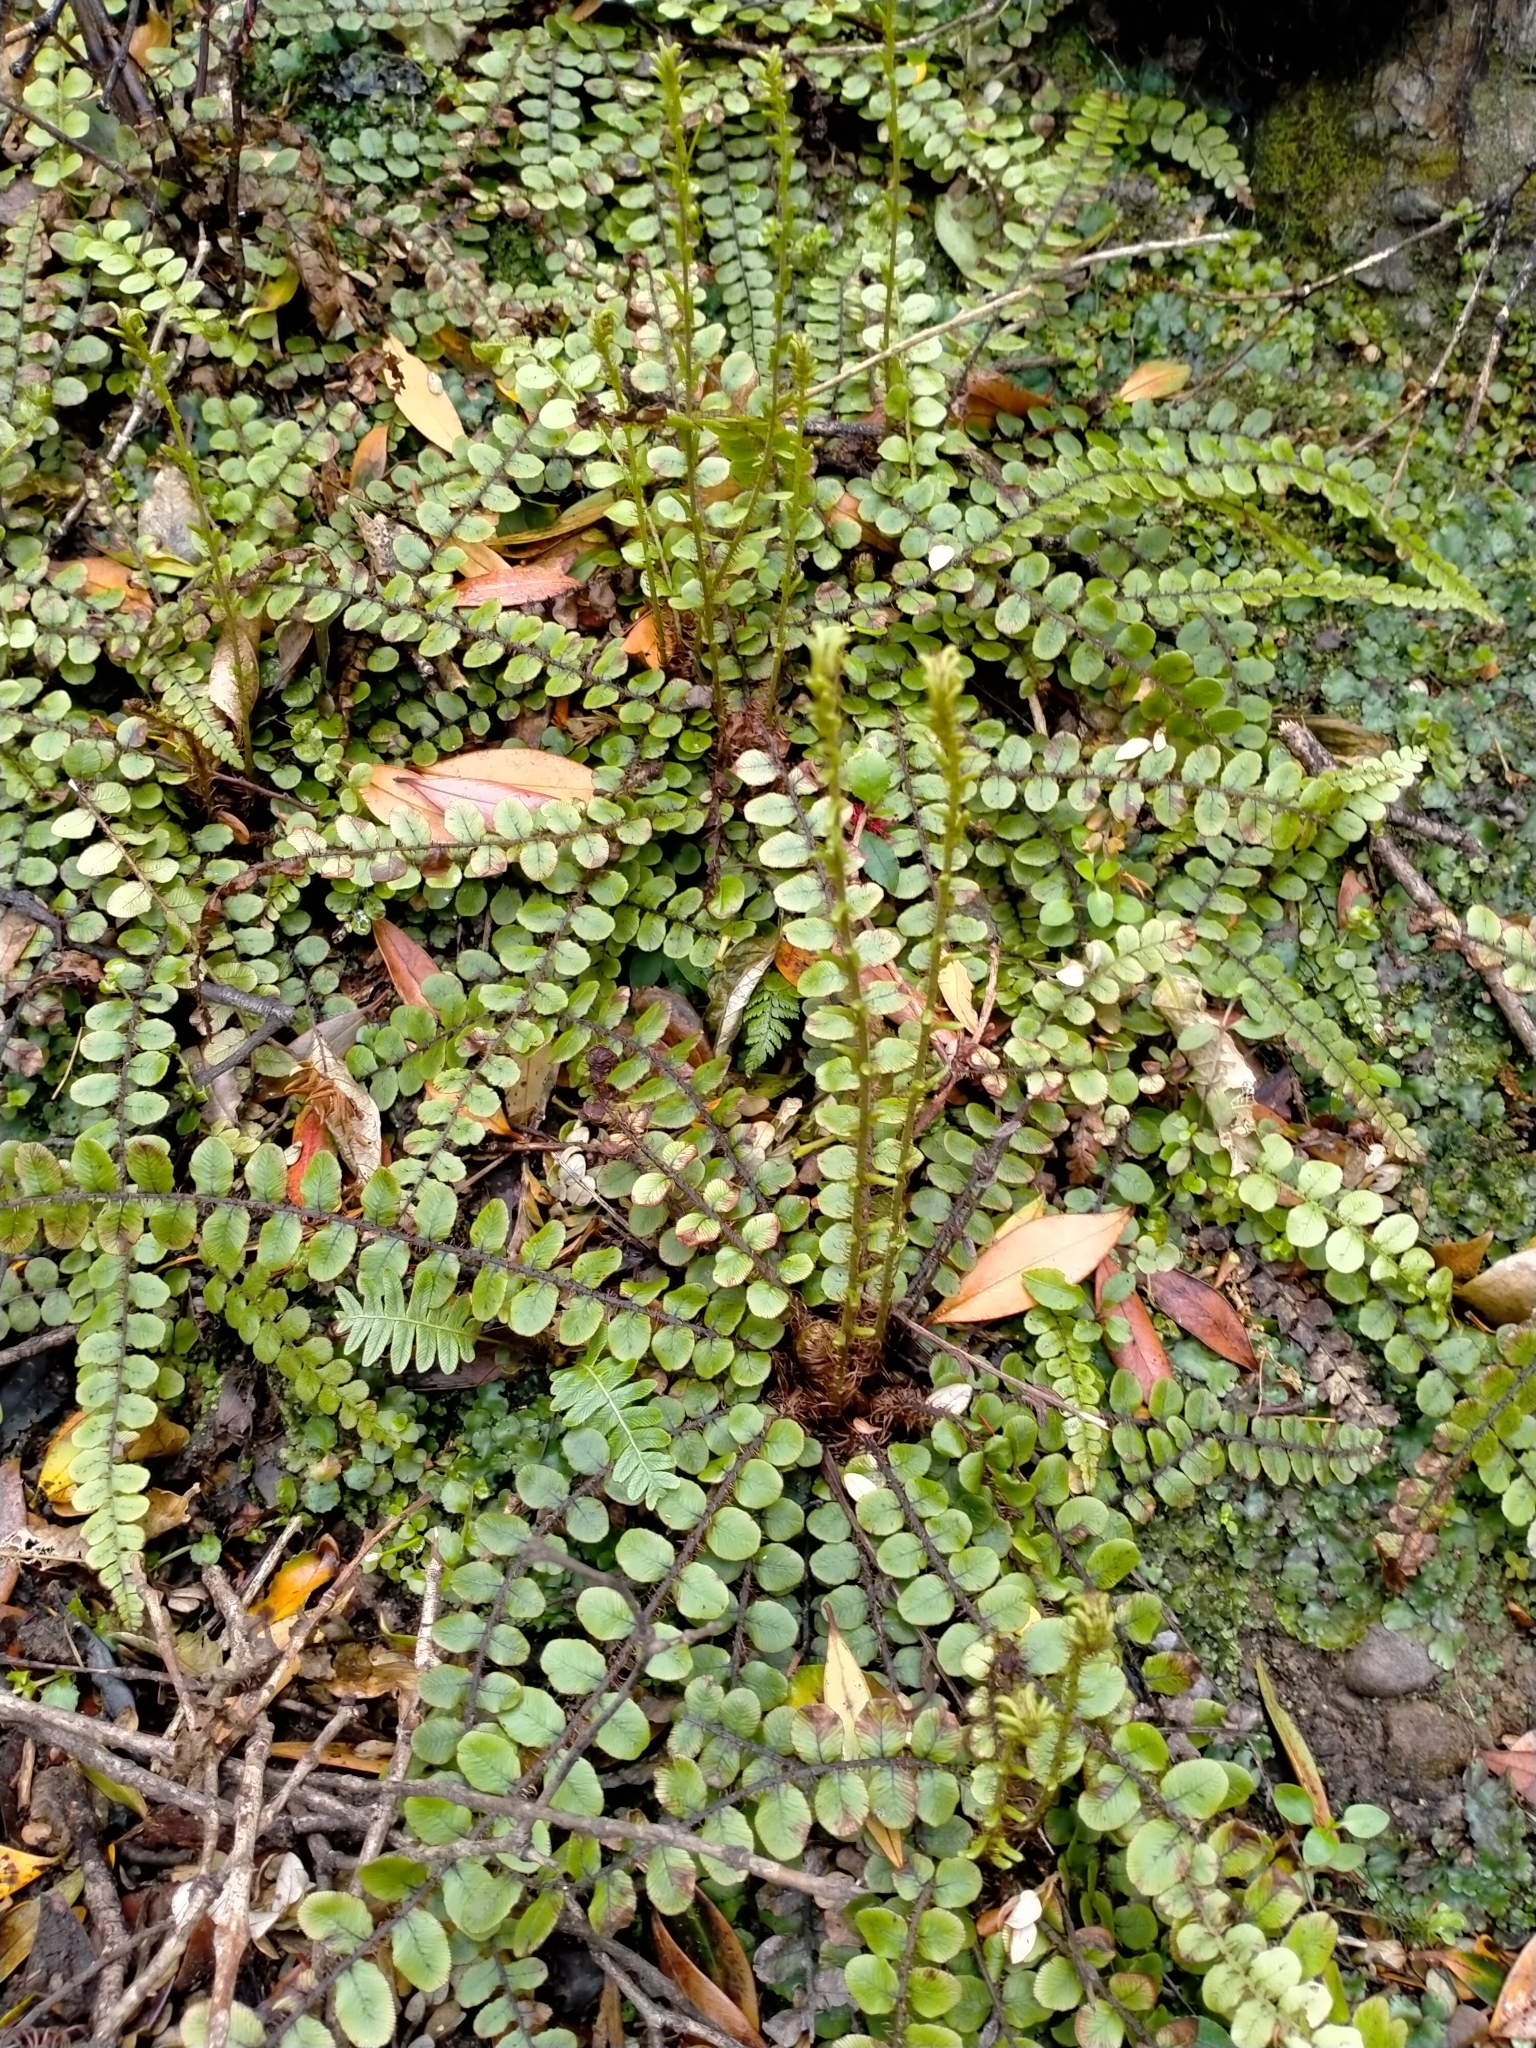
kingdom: Plantae
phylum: Tracheophyta
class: Polypodiopsida
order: Polypodiales
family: Blechnaceae
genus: Cranfillia
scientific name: Cranfillia fluviatilis
